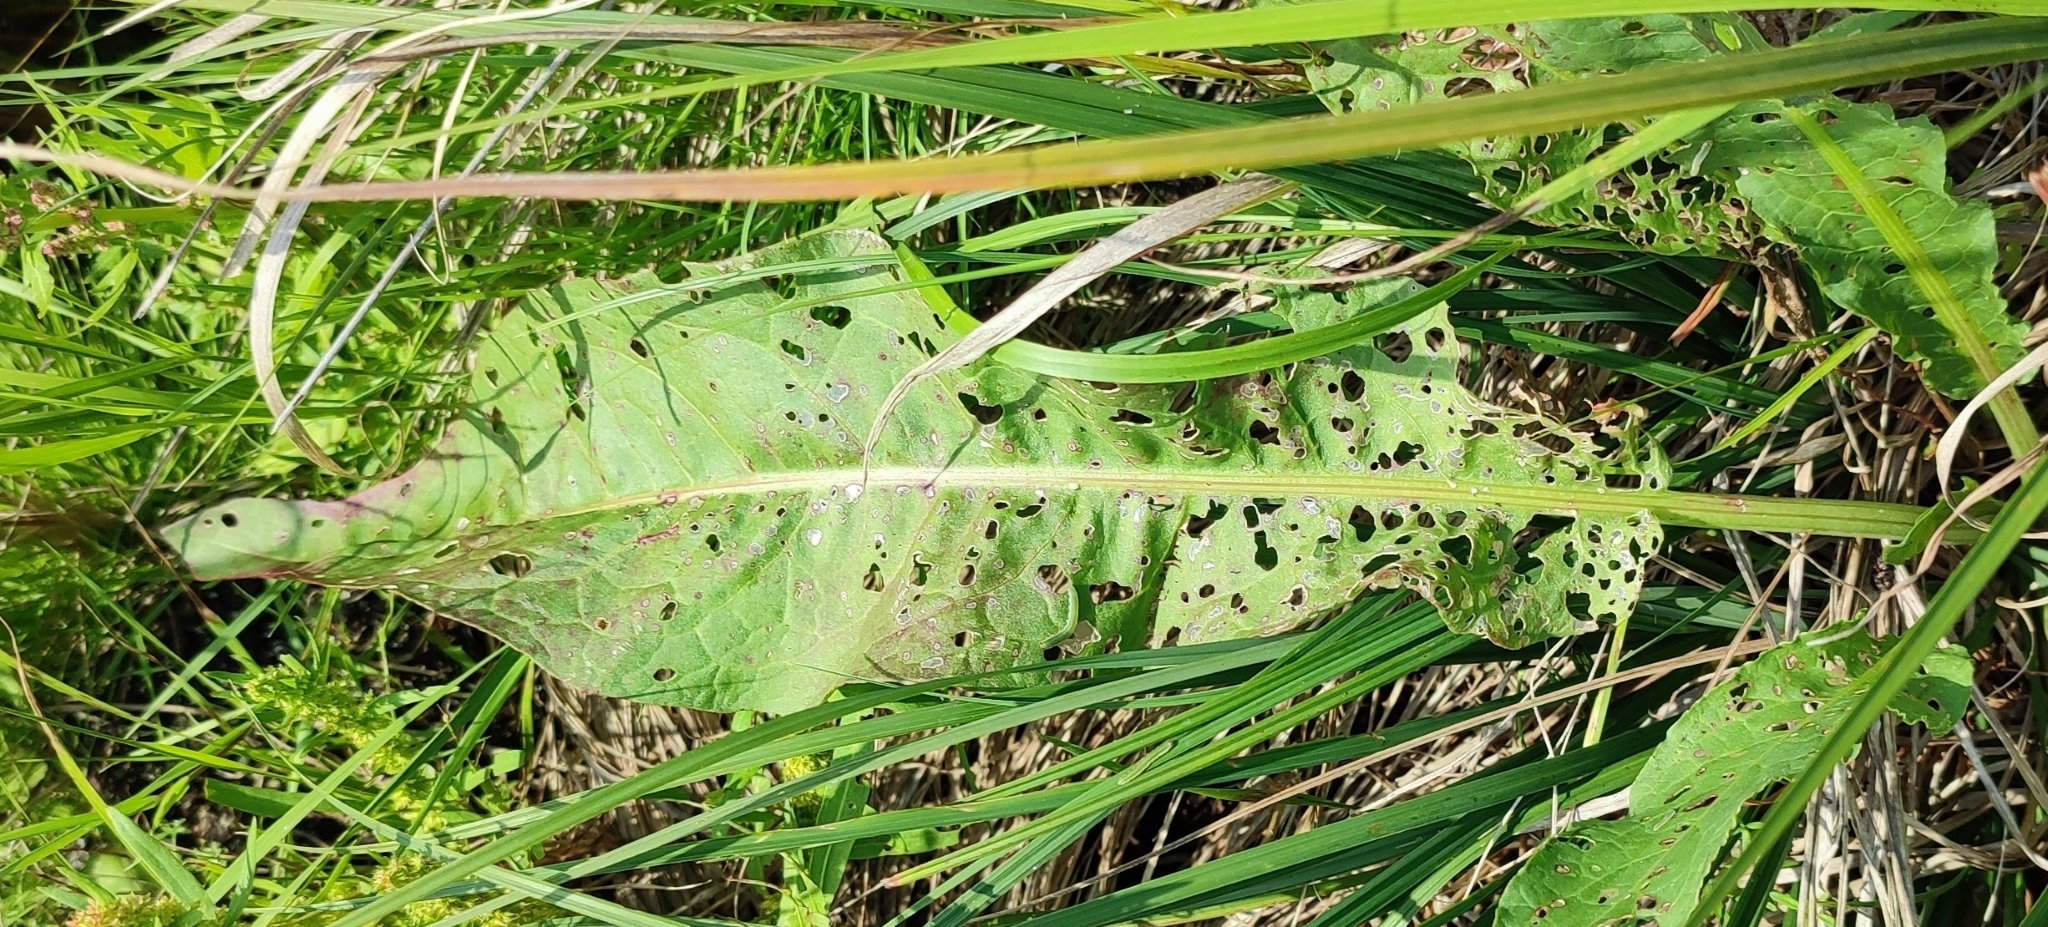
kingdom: Plantae
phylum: Tracheophyta
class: Magnoliopsida
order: Caryophyllales
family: Polygonaceae
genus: Rumex
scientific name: Rumex aquaticus
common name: Scottish dock
